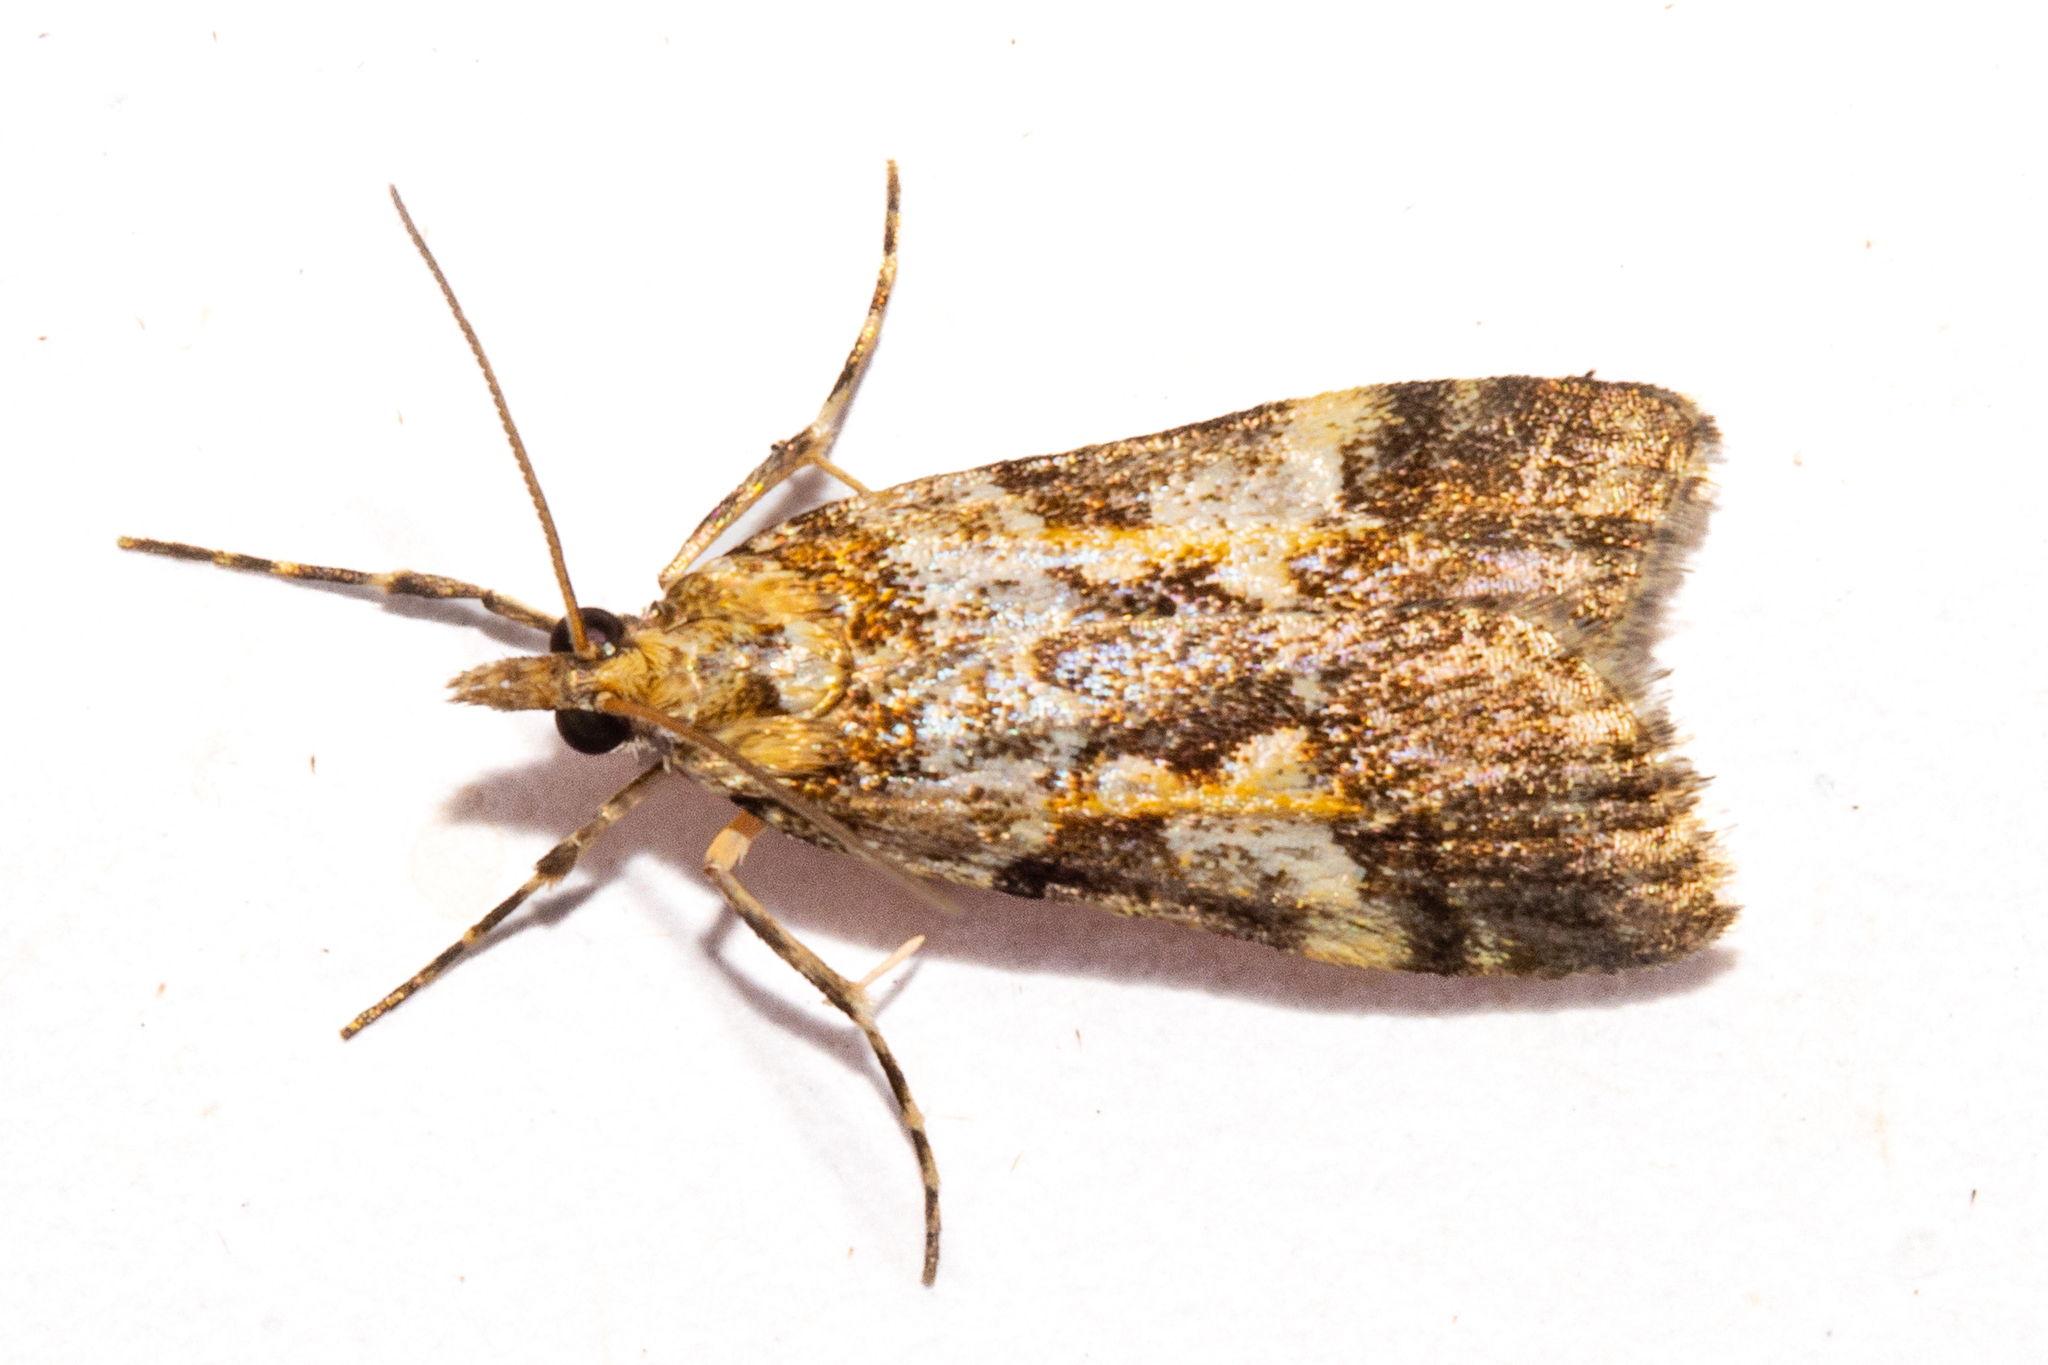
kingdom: Animalia
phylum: Arthropoda
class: Insecta
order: Lepidoptera
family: Crambidae
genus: Eudonia
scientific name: Eudonia characta
